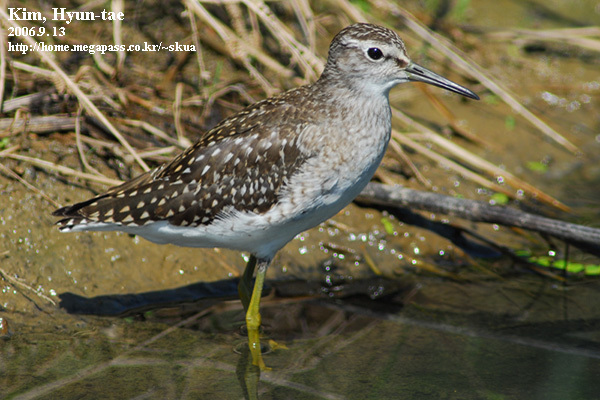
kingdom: Animalia
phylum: Chordata
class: Aves
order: Charadriiformes
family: Scolopacidae
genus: Tringa
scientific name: Tringa glareola
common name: Wood sandpiper
